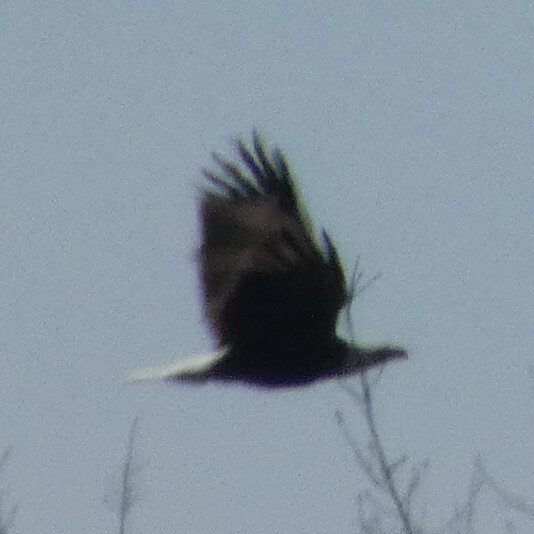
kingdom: Animalia
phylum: Chordata
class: Aves
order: Accipitriformes
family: Accipitridae
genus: Haliaeetus
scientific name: Haliaeetus leucocephalus
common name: Bald eagle
